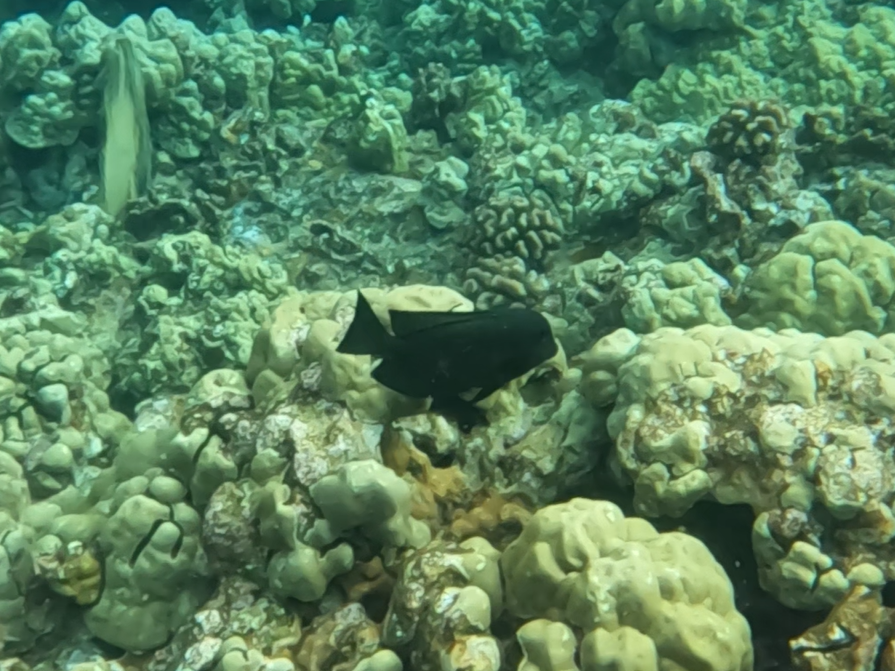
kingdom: Animalia
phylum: Chordata
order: Perciformes
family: Acanthuridae
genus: Ctenochaetus
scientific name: Ctenochaetus hawaiiensis
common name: Hawaiian surgeonfish
